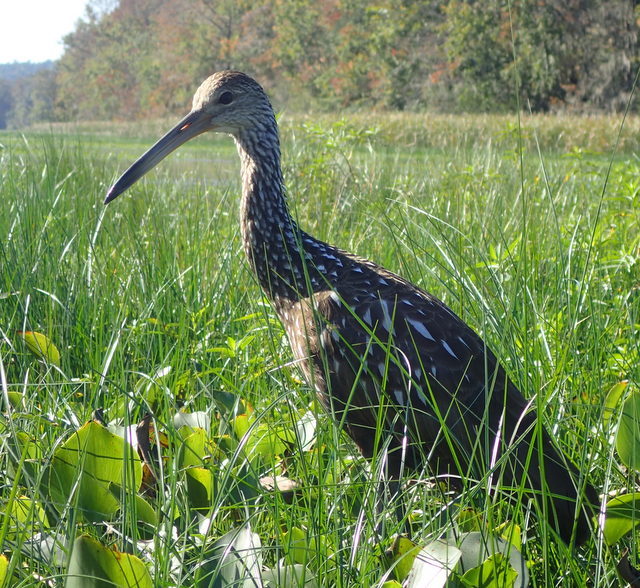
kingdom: Animalia
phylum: Chordata
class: Aves
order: Gruiformes
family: Aramidae
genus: Aramus
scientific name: Aramus guarauna
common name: Limpkin
